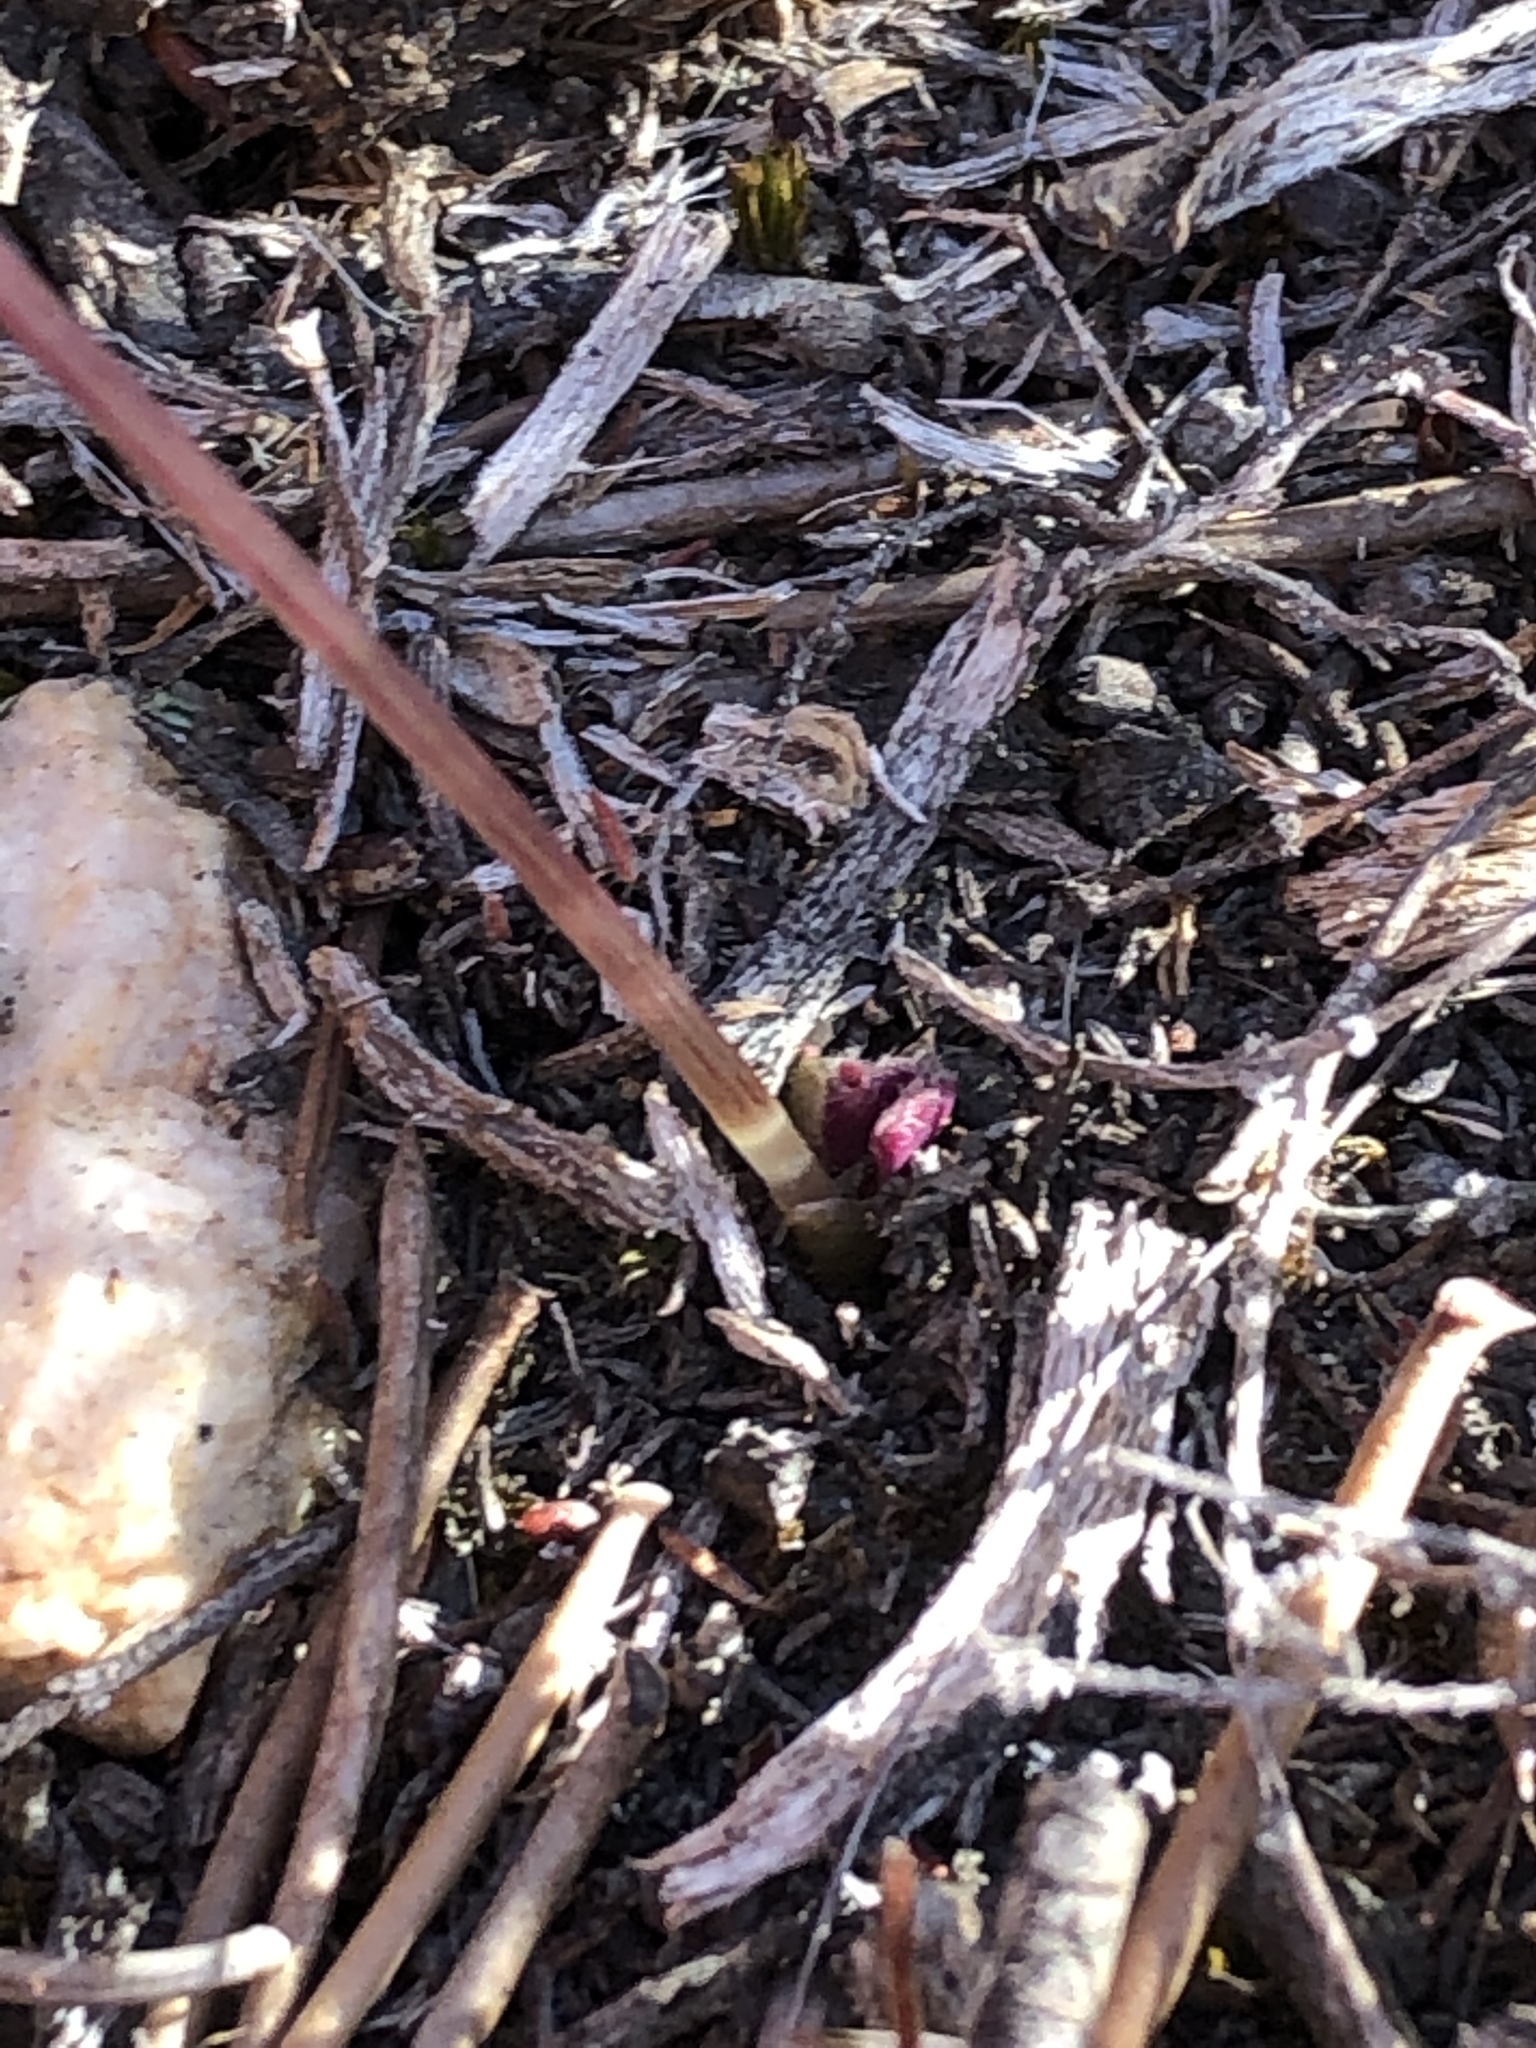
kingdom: Plantae
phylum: Tracheophyta
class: Magnoliopsida
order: Oxalidales
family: Oxalidaceae
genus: Oxalis
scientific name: Oxalis depressa
